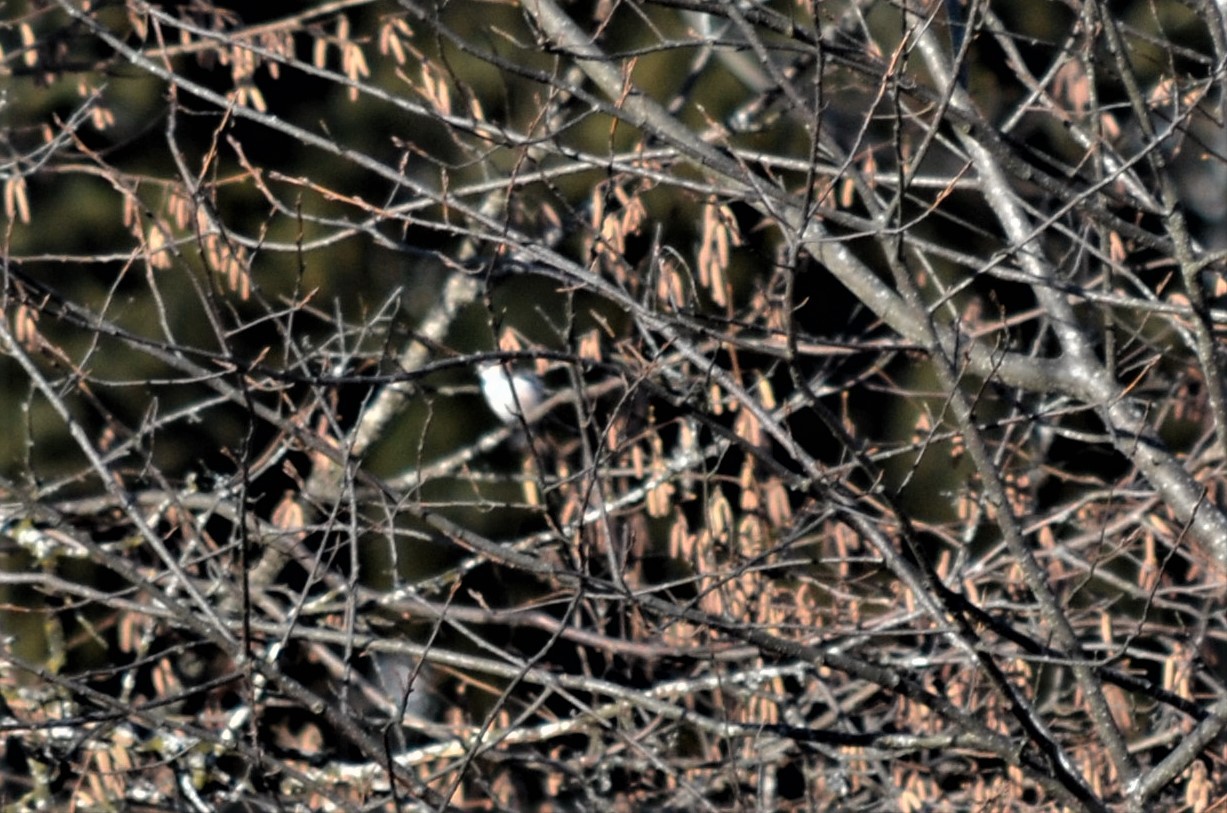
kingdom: Animalia
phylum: Chordata
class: Aves
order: Passeriformes
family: Aegithalidae
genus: Aegithalos
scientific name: Aegithalos caudatus
